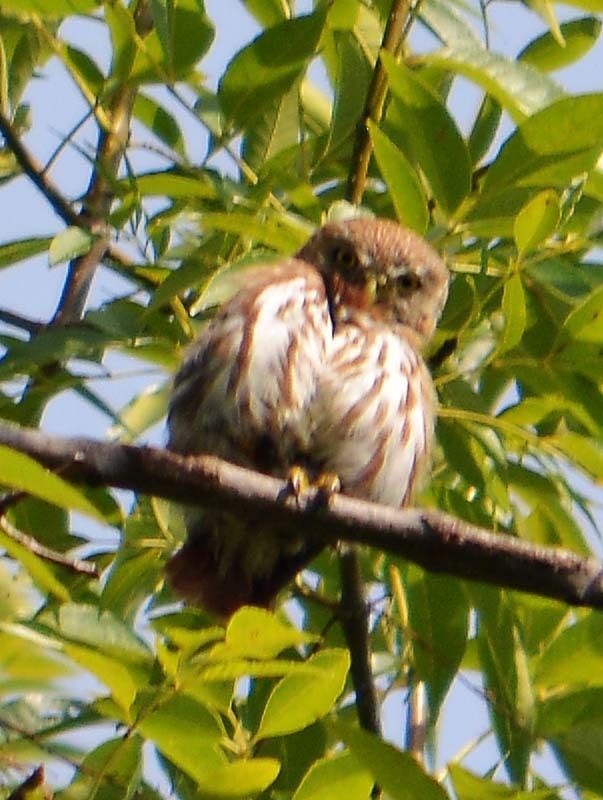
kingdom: Animalia
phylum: Chordata
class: Aves
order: Strigiformes
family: Strigidae
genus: Glaucidium
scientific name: Glaucidium brasilianum
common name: Ferruginous pygmy-owl
